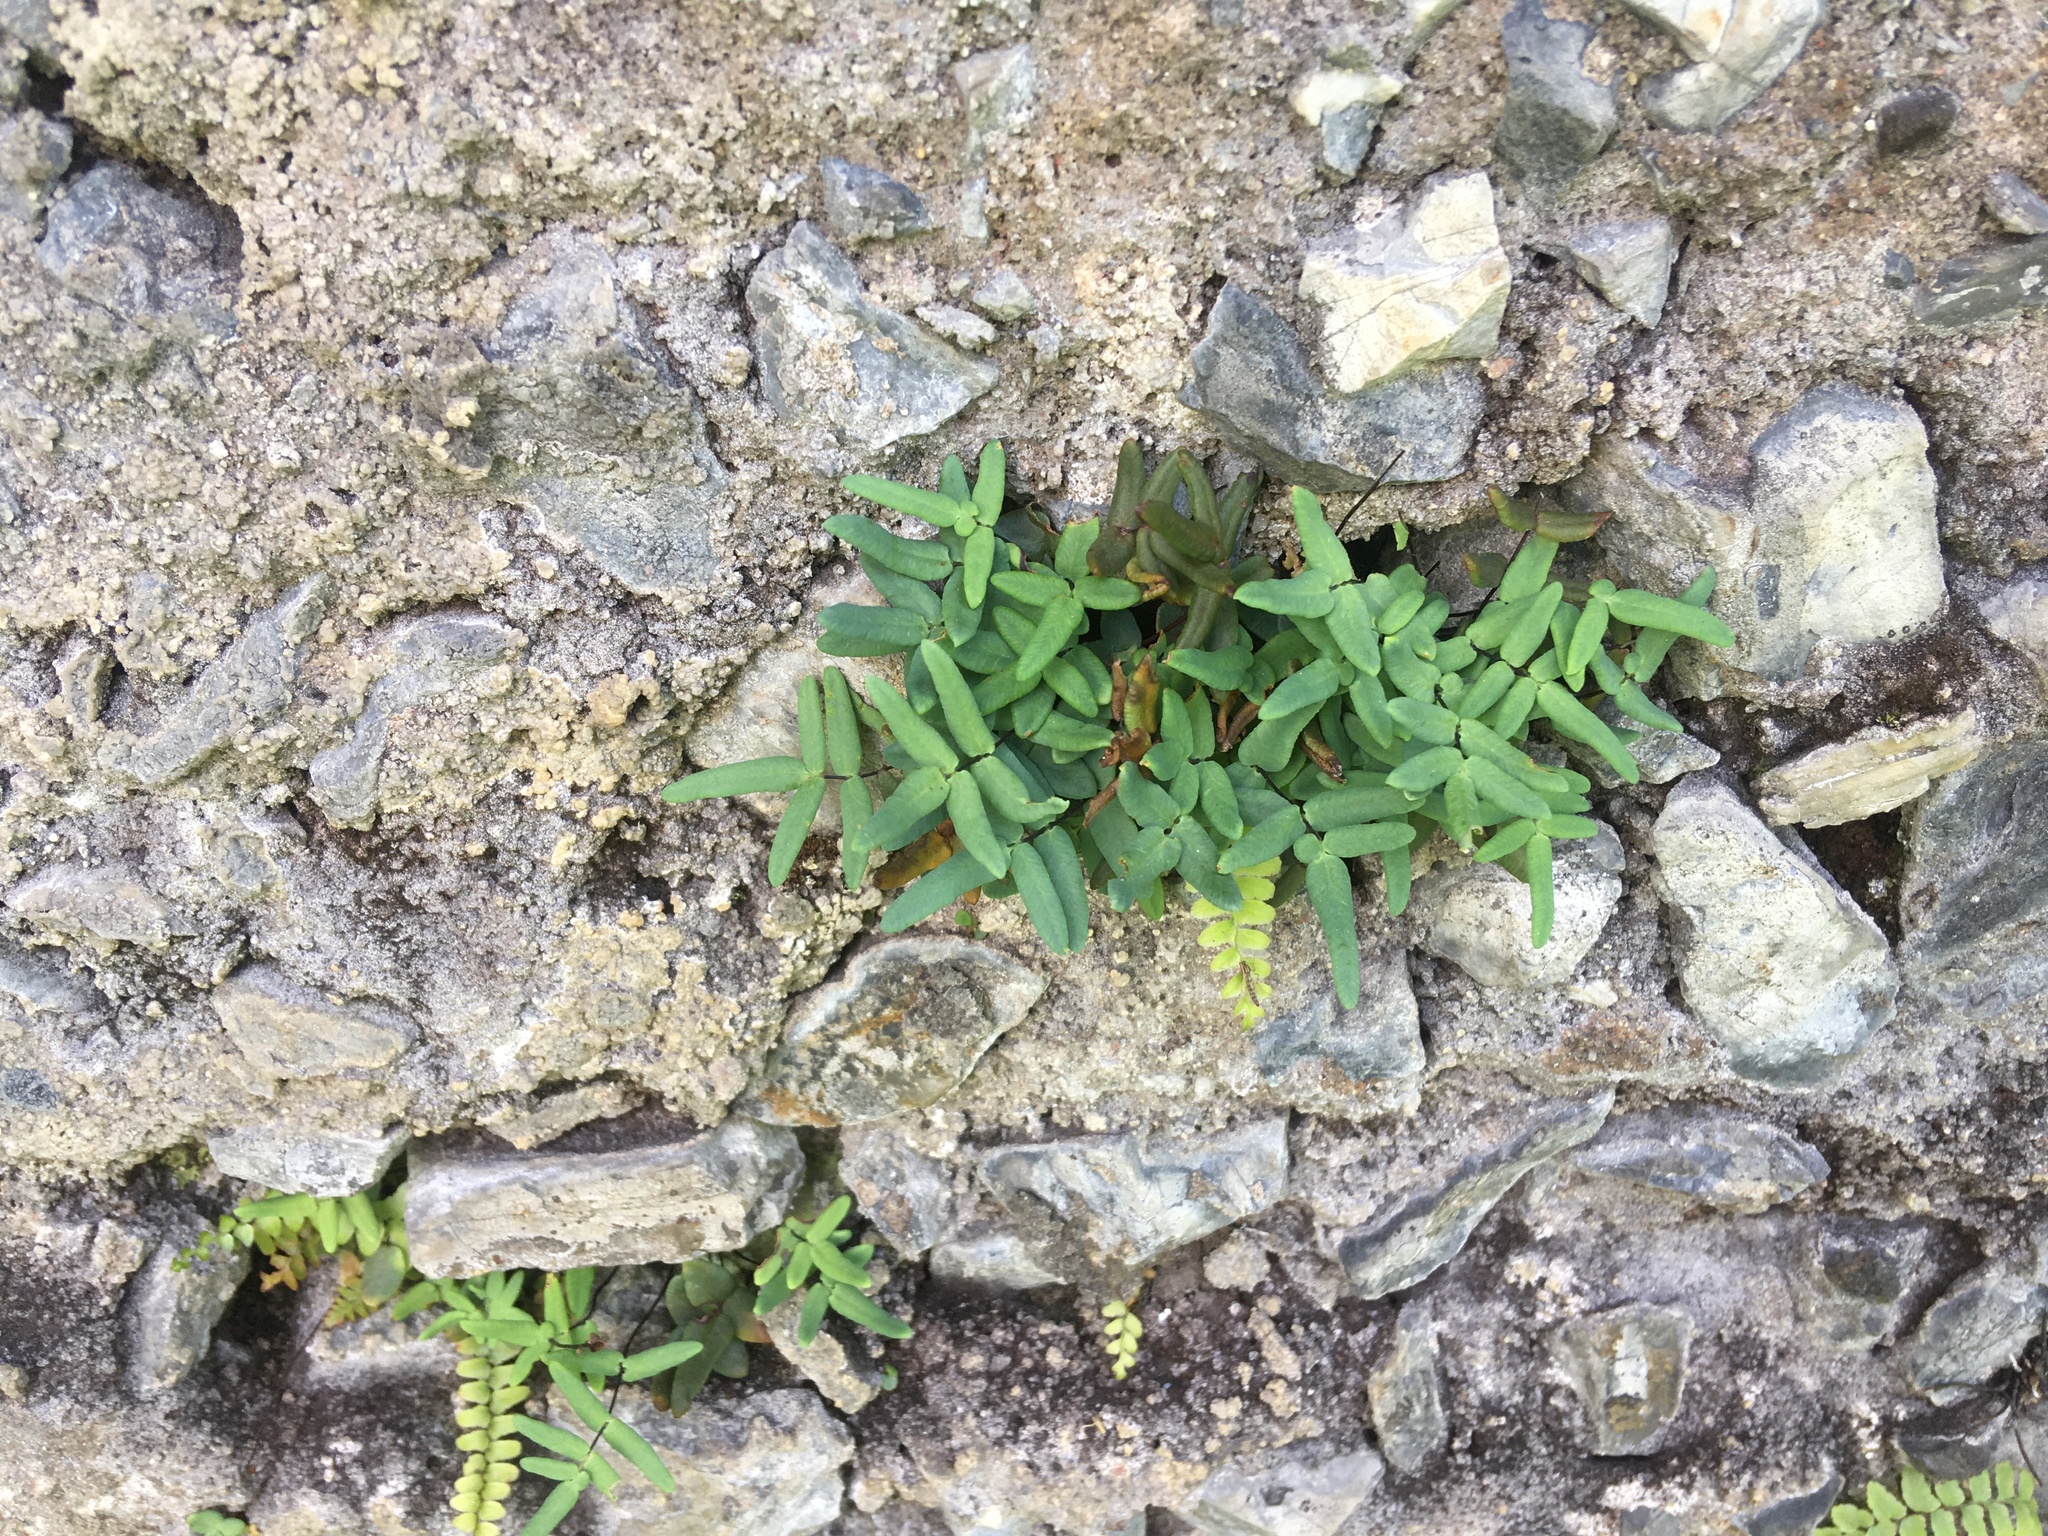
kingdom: Plantae
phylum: Tracheophyta
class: Polypodiopsida
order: Polypodiales
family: Pteridaceae
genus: Pellaea
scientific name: Pellaea glabella
